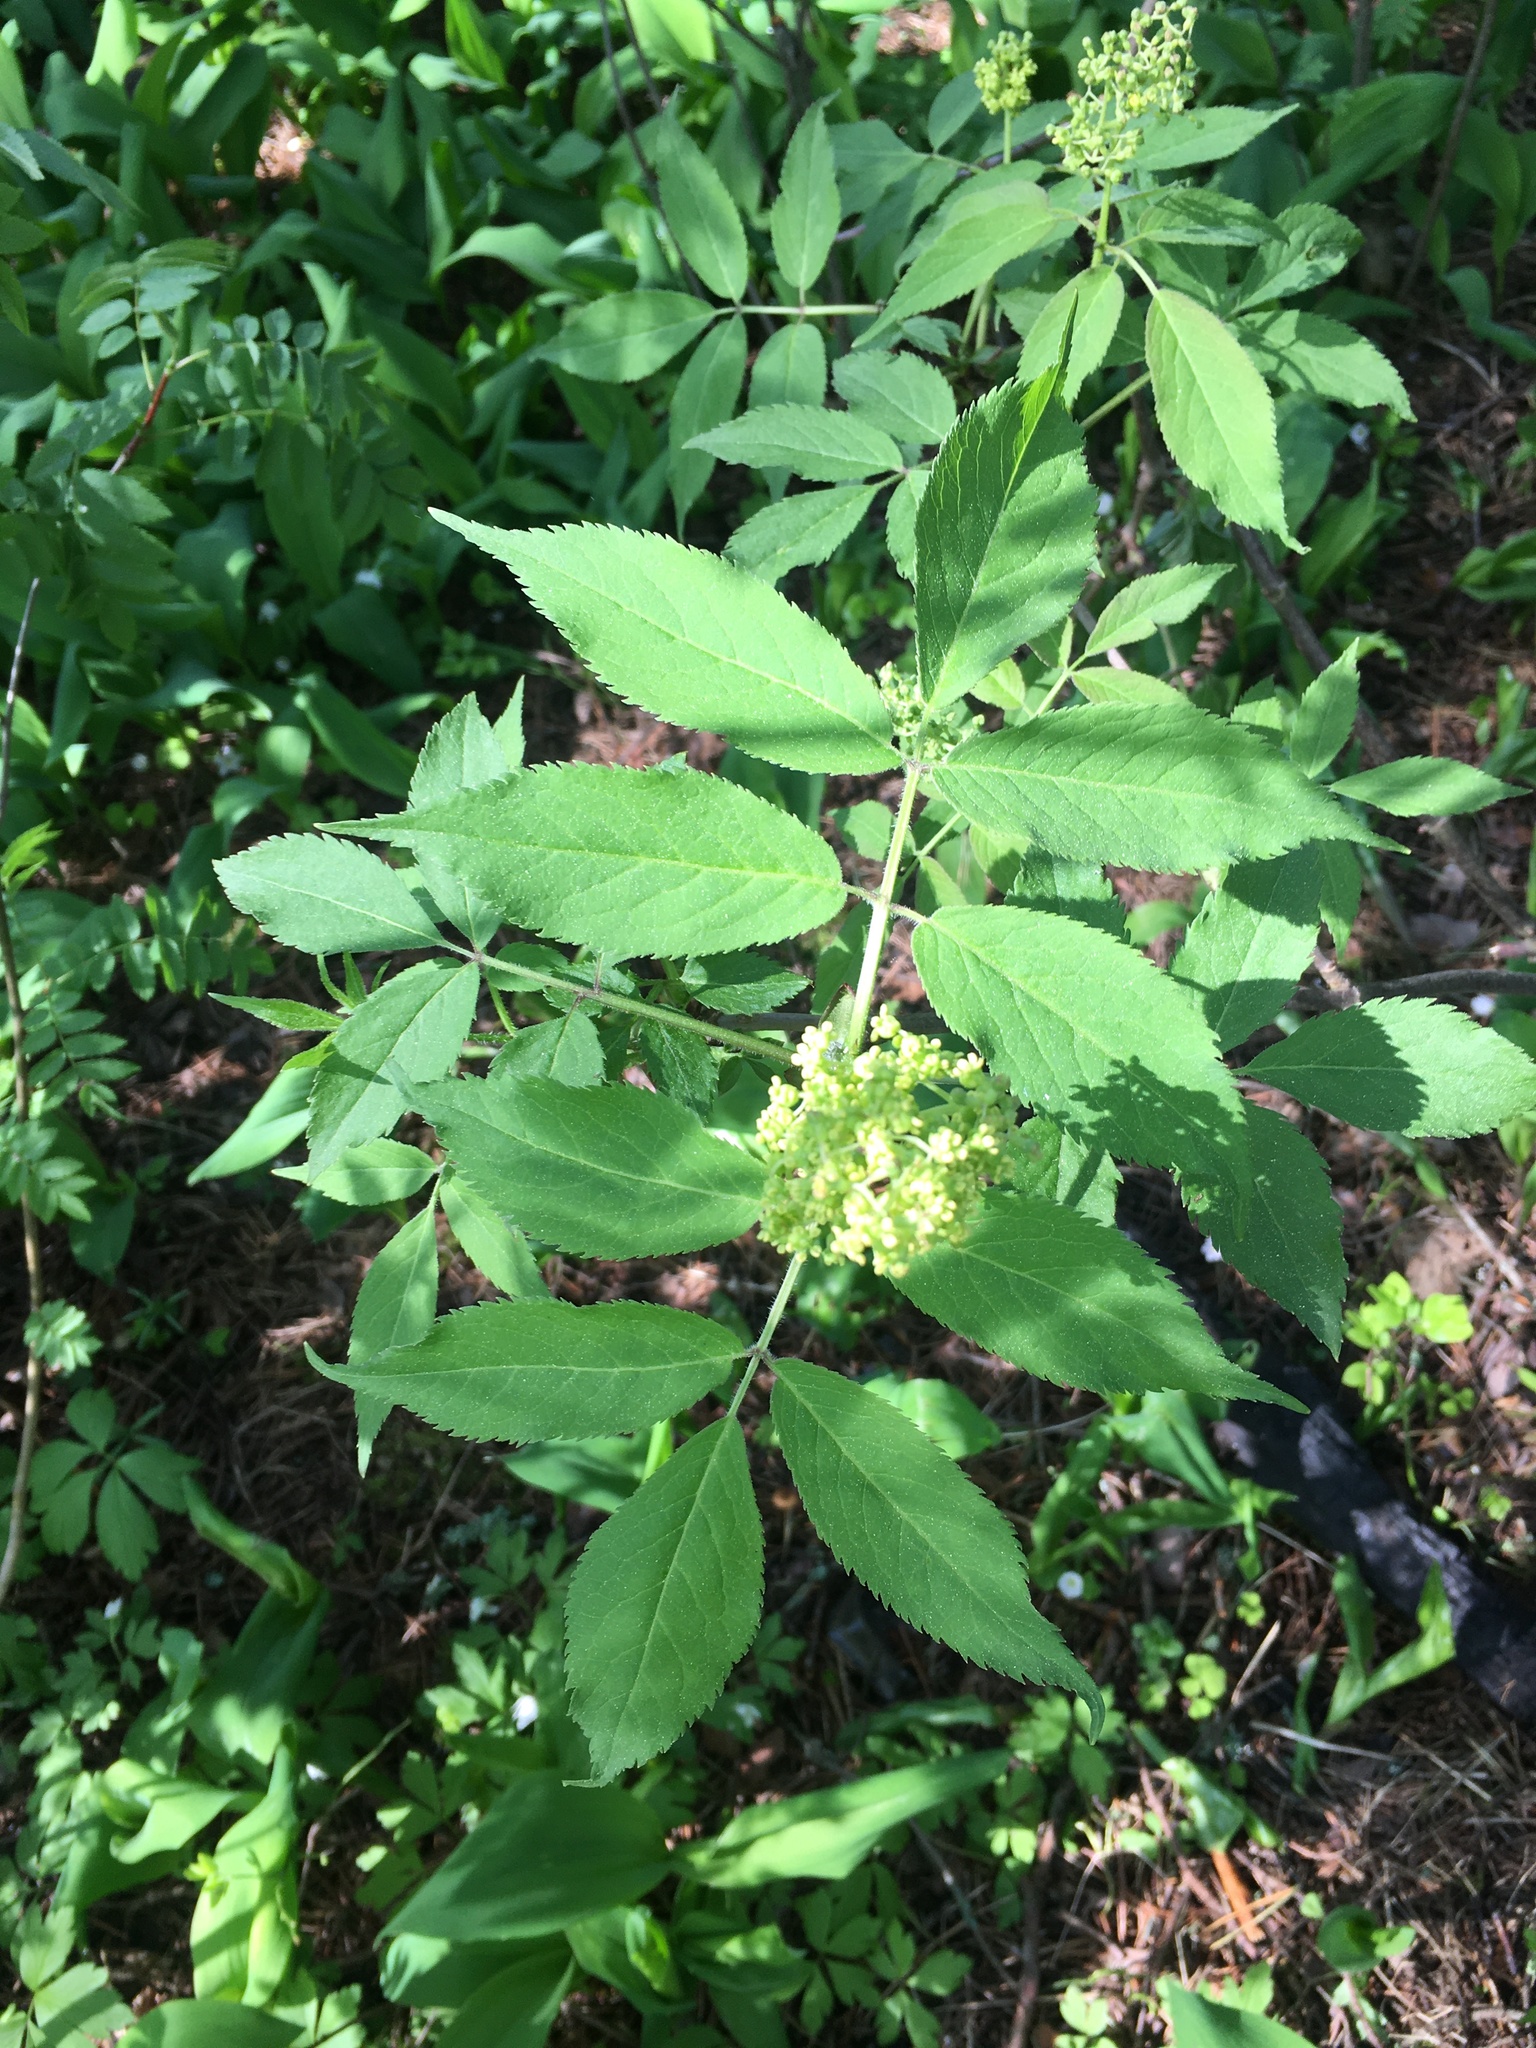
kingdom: Plantae
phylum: Tracheophyta
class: Magnoliopsida
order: Dipsacales
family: Viburnaceae
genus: Sambucus
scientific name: Sambucus racemosa
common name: Red-berried elder
